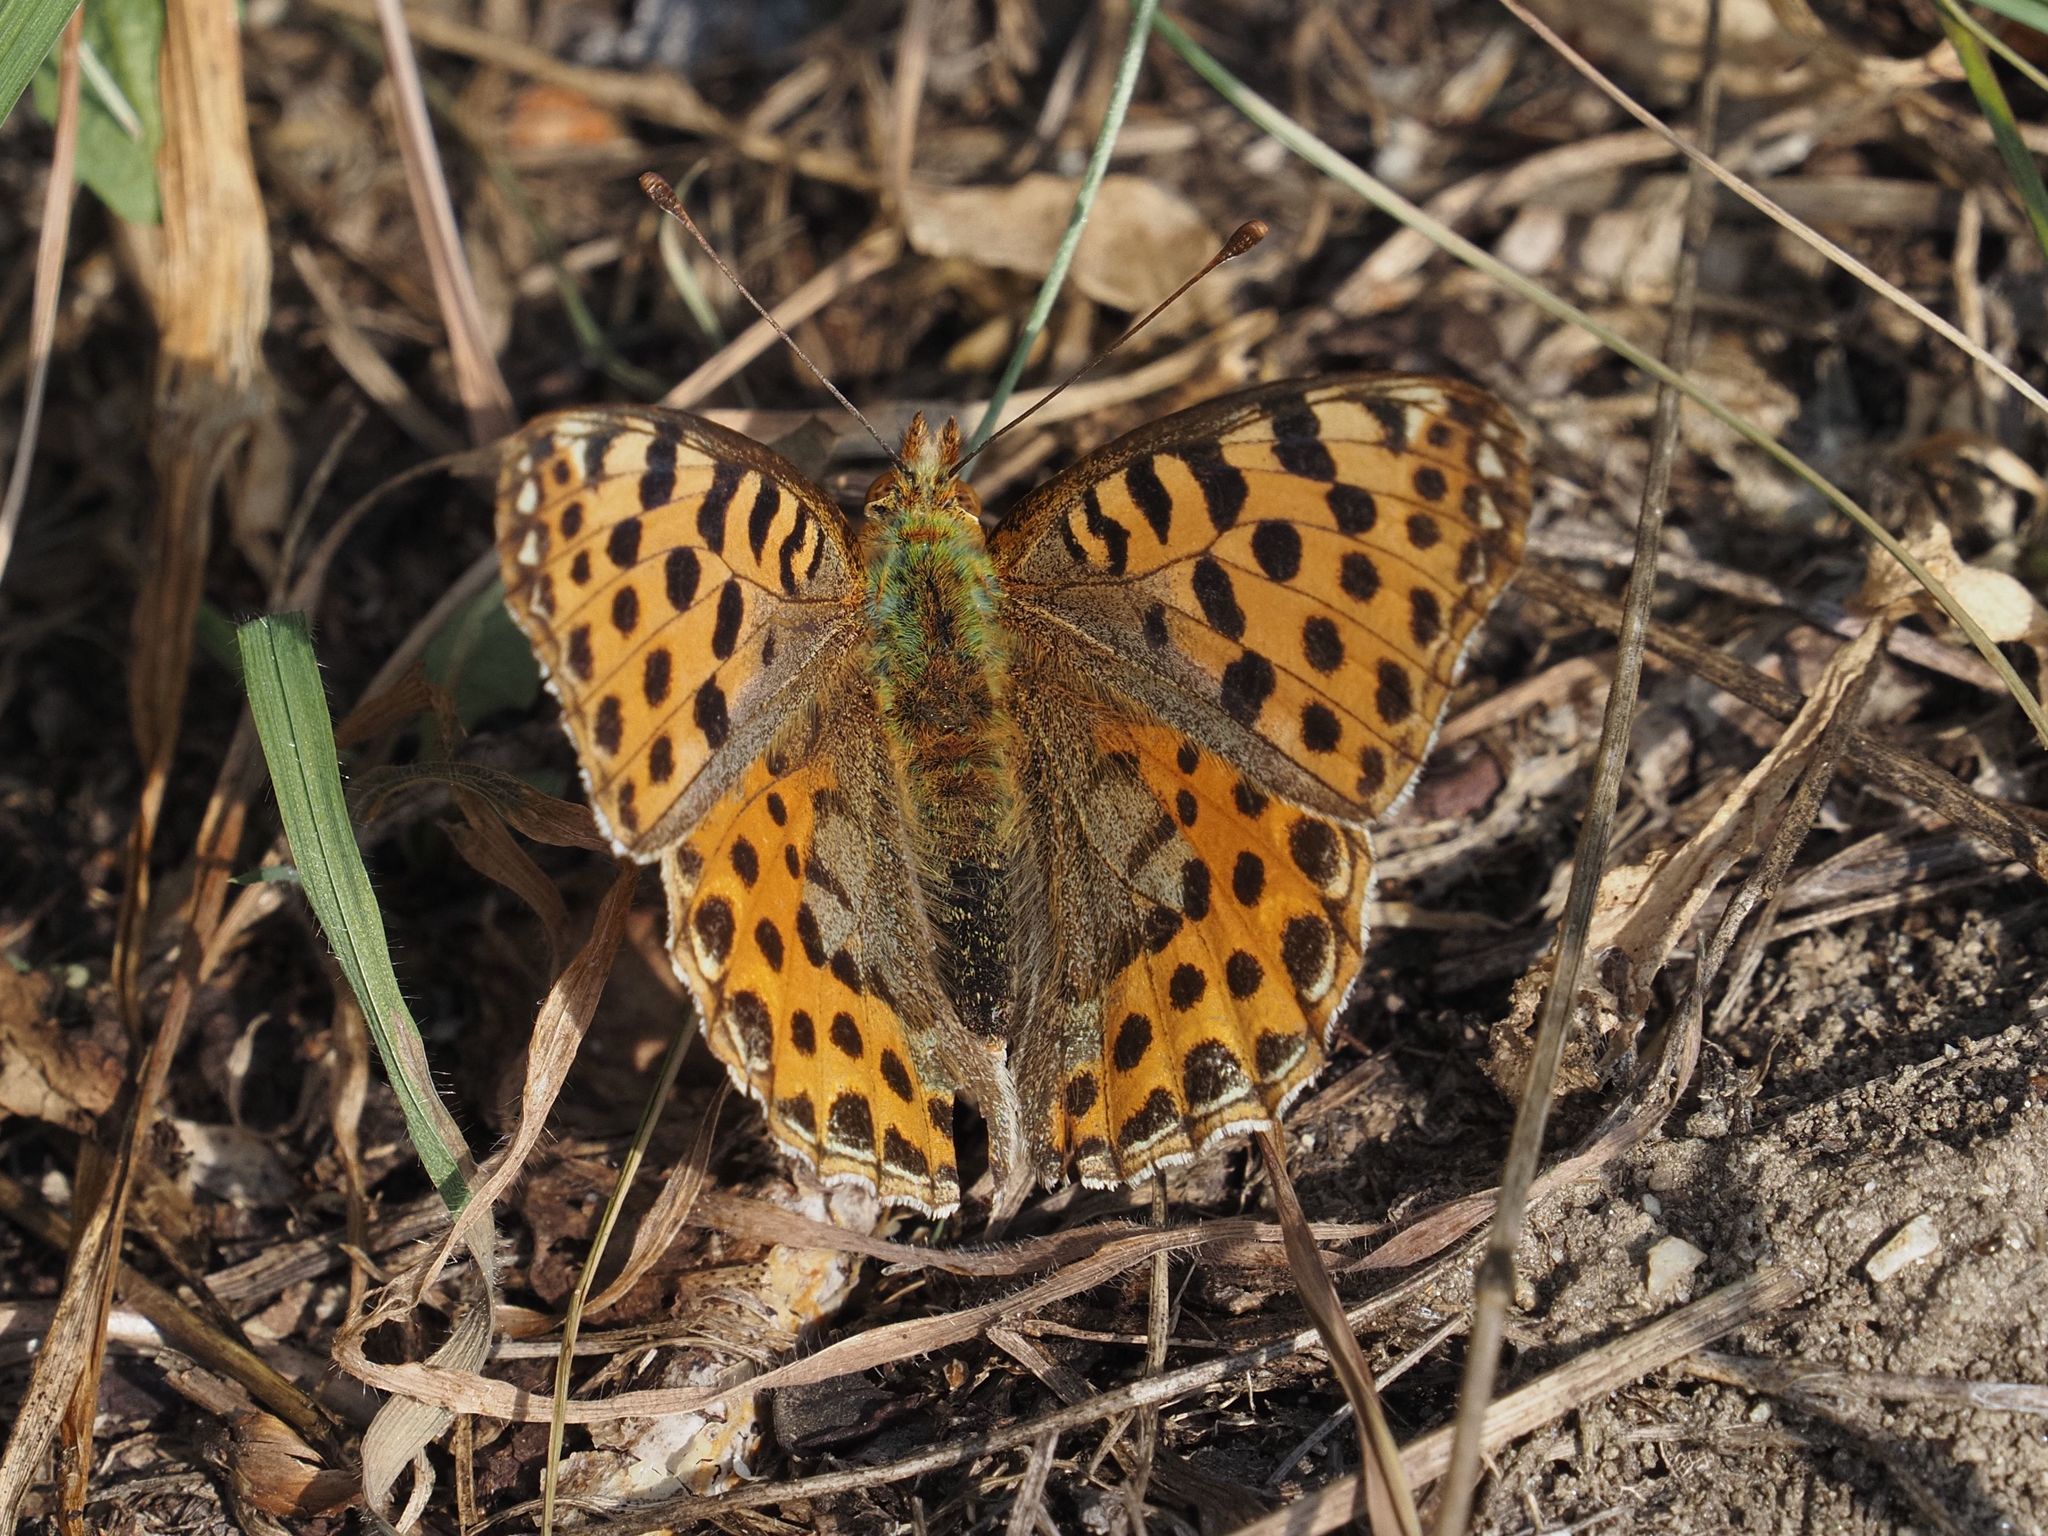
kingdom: Animalia
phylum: Arthropoda
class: Insecta
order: Lepidoptera
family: Nymphalidae
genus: Issoria
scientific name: Issoria lathonia
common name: Queen of spain fritillary
